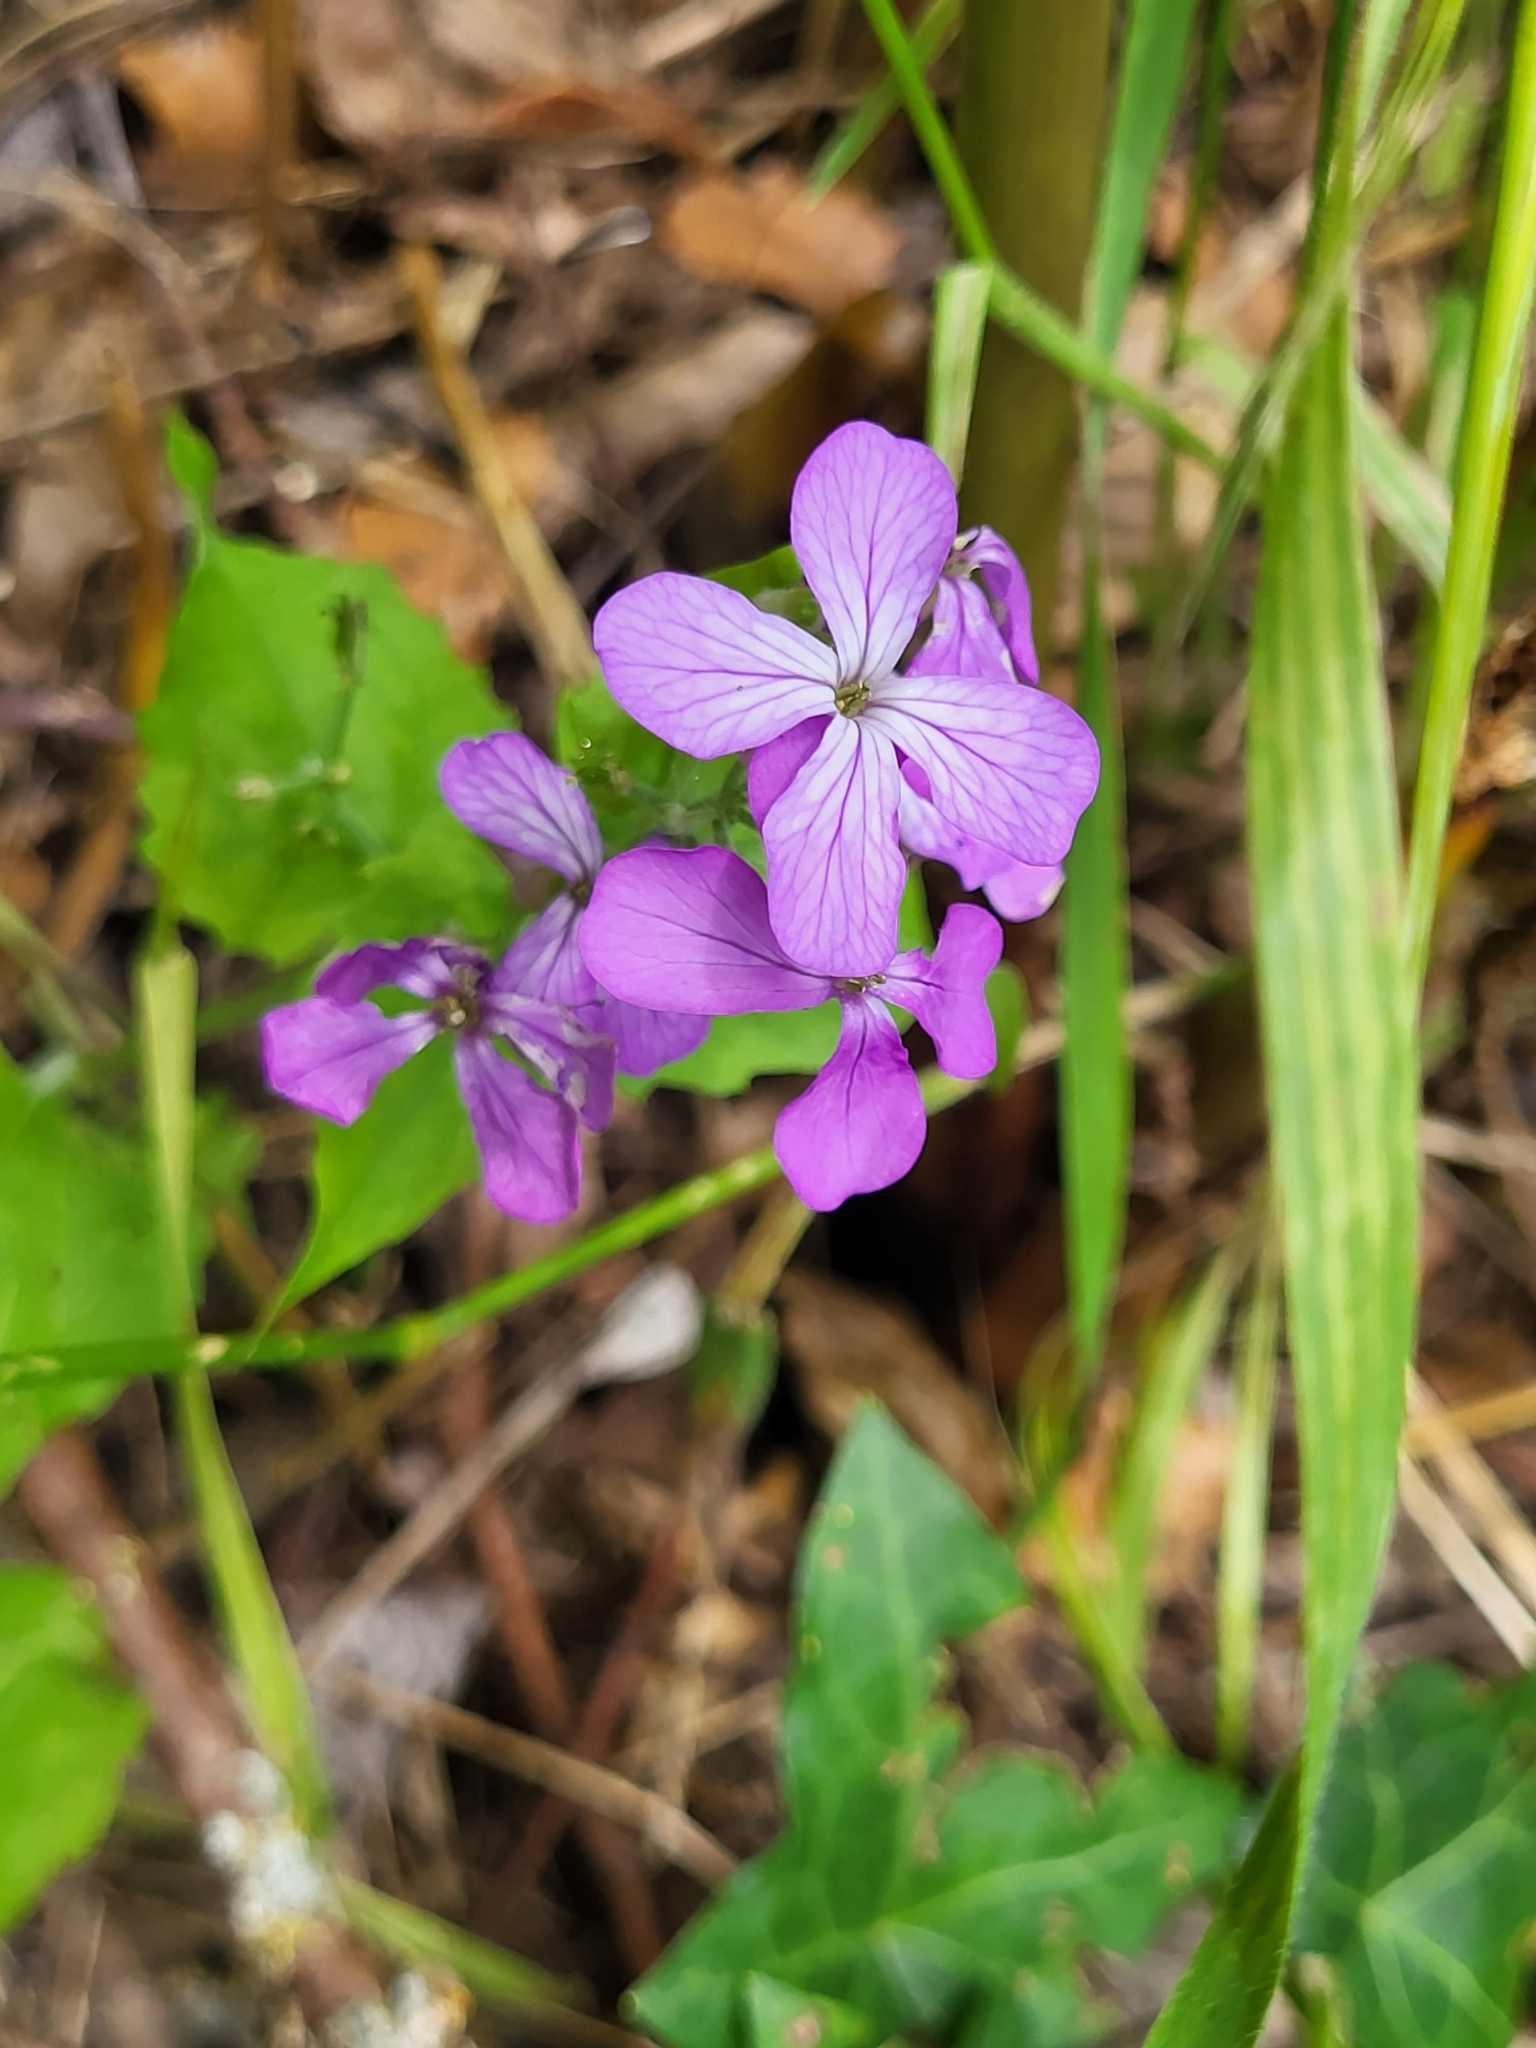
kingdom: Plantae
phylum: Tracheophyta
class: Magnoliopsida
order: Brassicales
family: Brassicaceae
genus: Lunaria
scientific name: Lunaria annua
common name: Honesty
